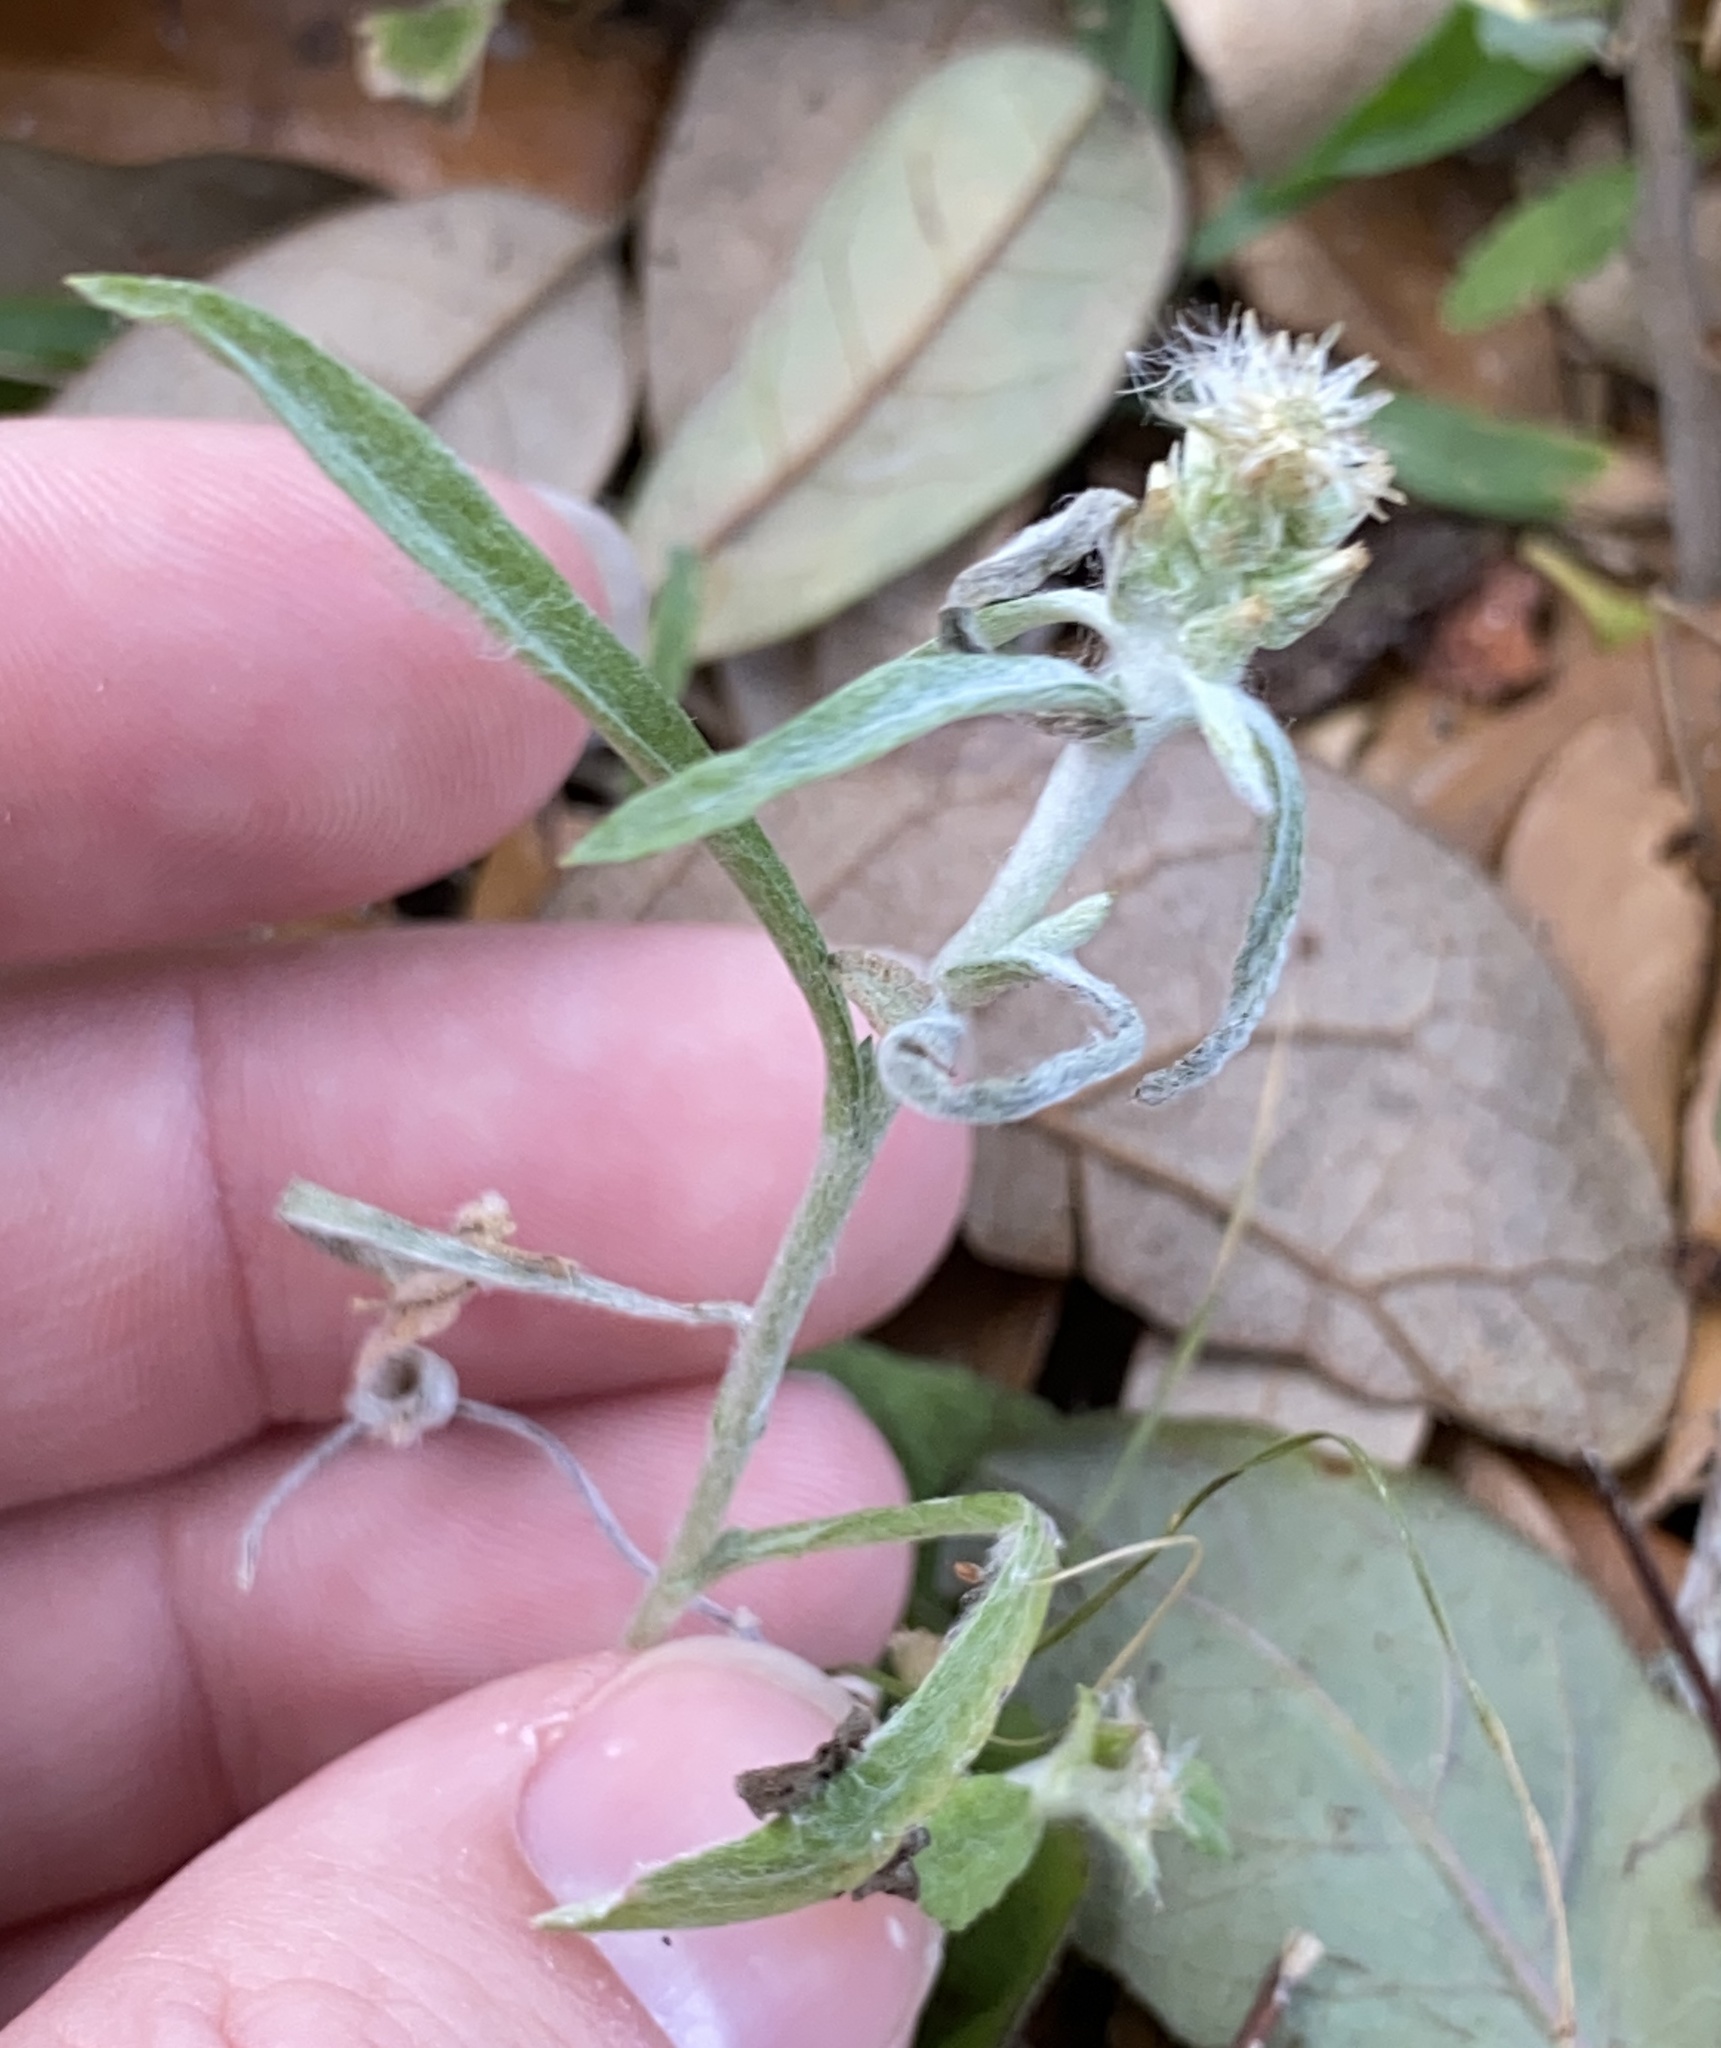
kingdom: Plantae
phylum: Tracheophyta
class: Magnoliopsida
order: Asterales
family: Asteraceae
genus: Gamochaeta
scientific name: Gamochaeta pensylvanica
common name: Pennsylvania everlasting
